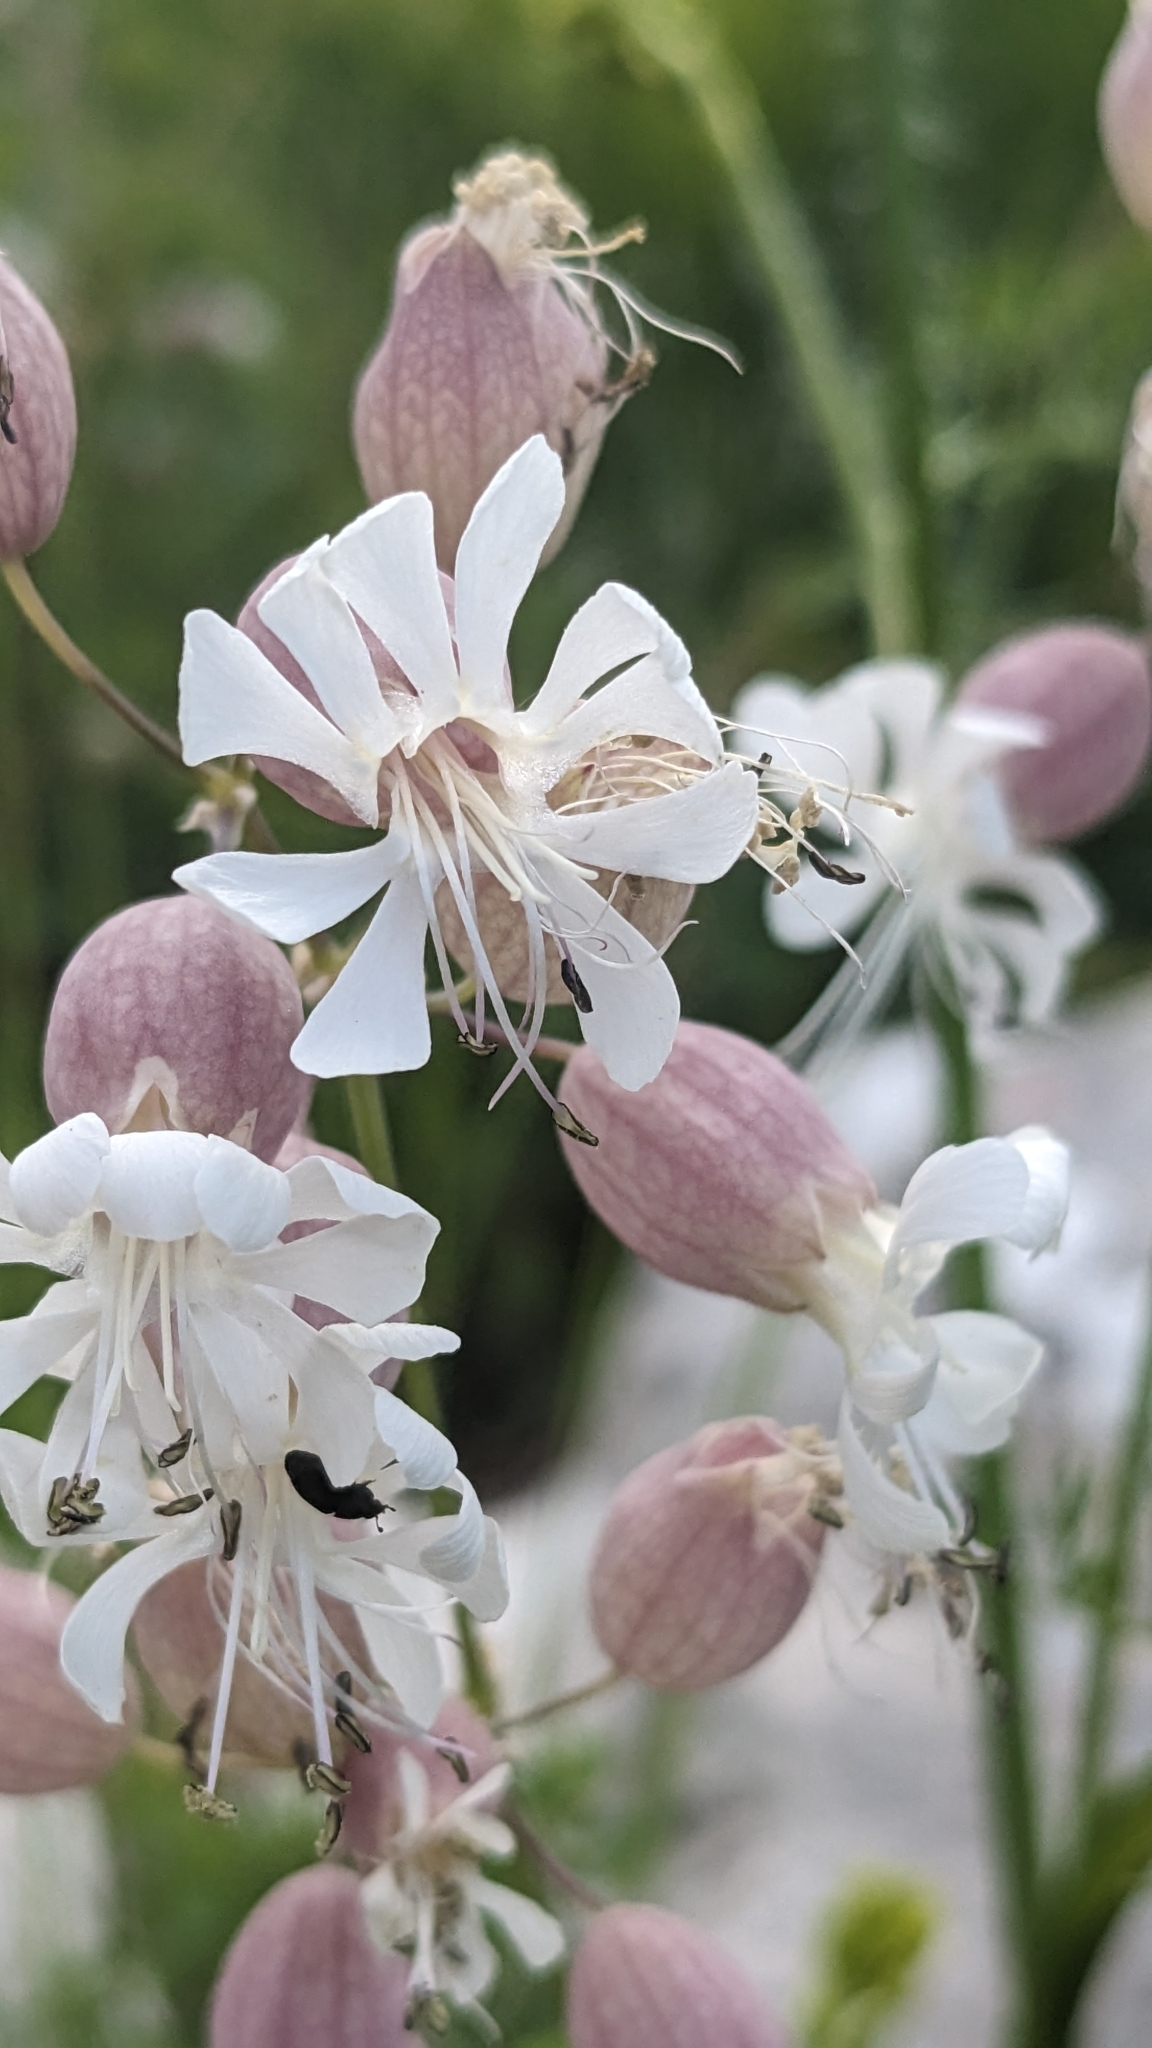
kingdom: Plantae
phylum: Tracheophyta
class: Magnoliopsida
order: Caryophyllales
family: Caryophyllaceae
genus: Silene
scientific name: Silene vulgaris
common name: Bladder campion
